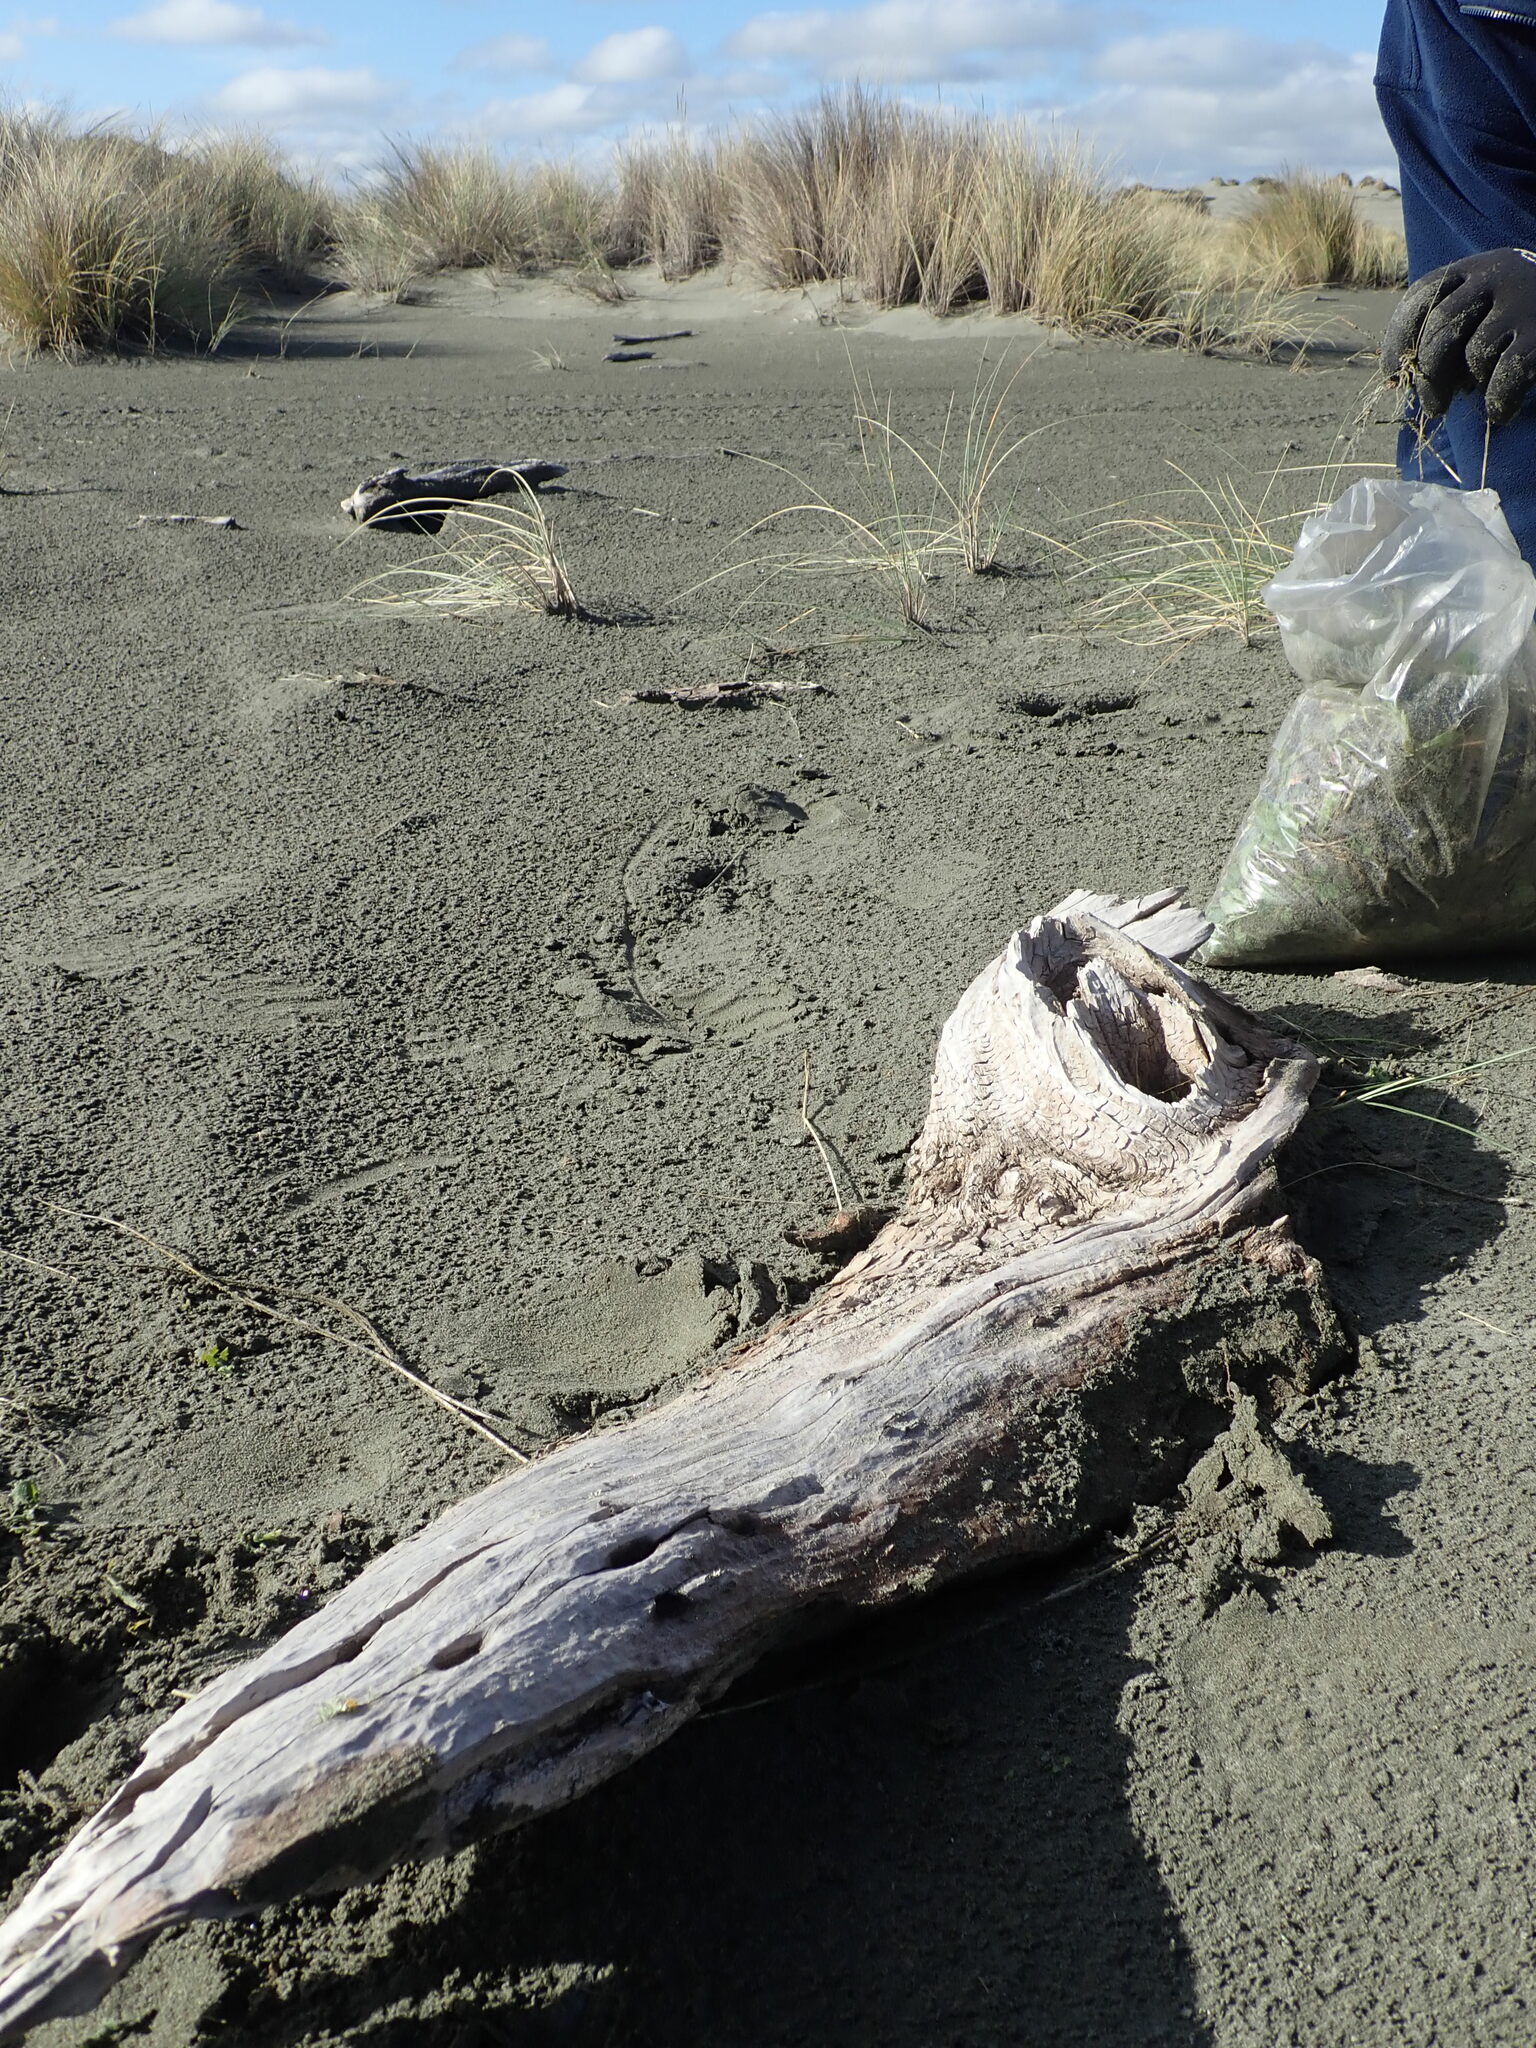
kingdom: Animalia
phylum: Arthropoda
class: Arachnida
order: Araneae
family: Lycosidae
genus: Anoteropsis
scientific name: Anoteropsis litoralis
